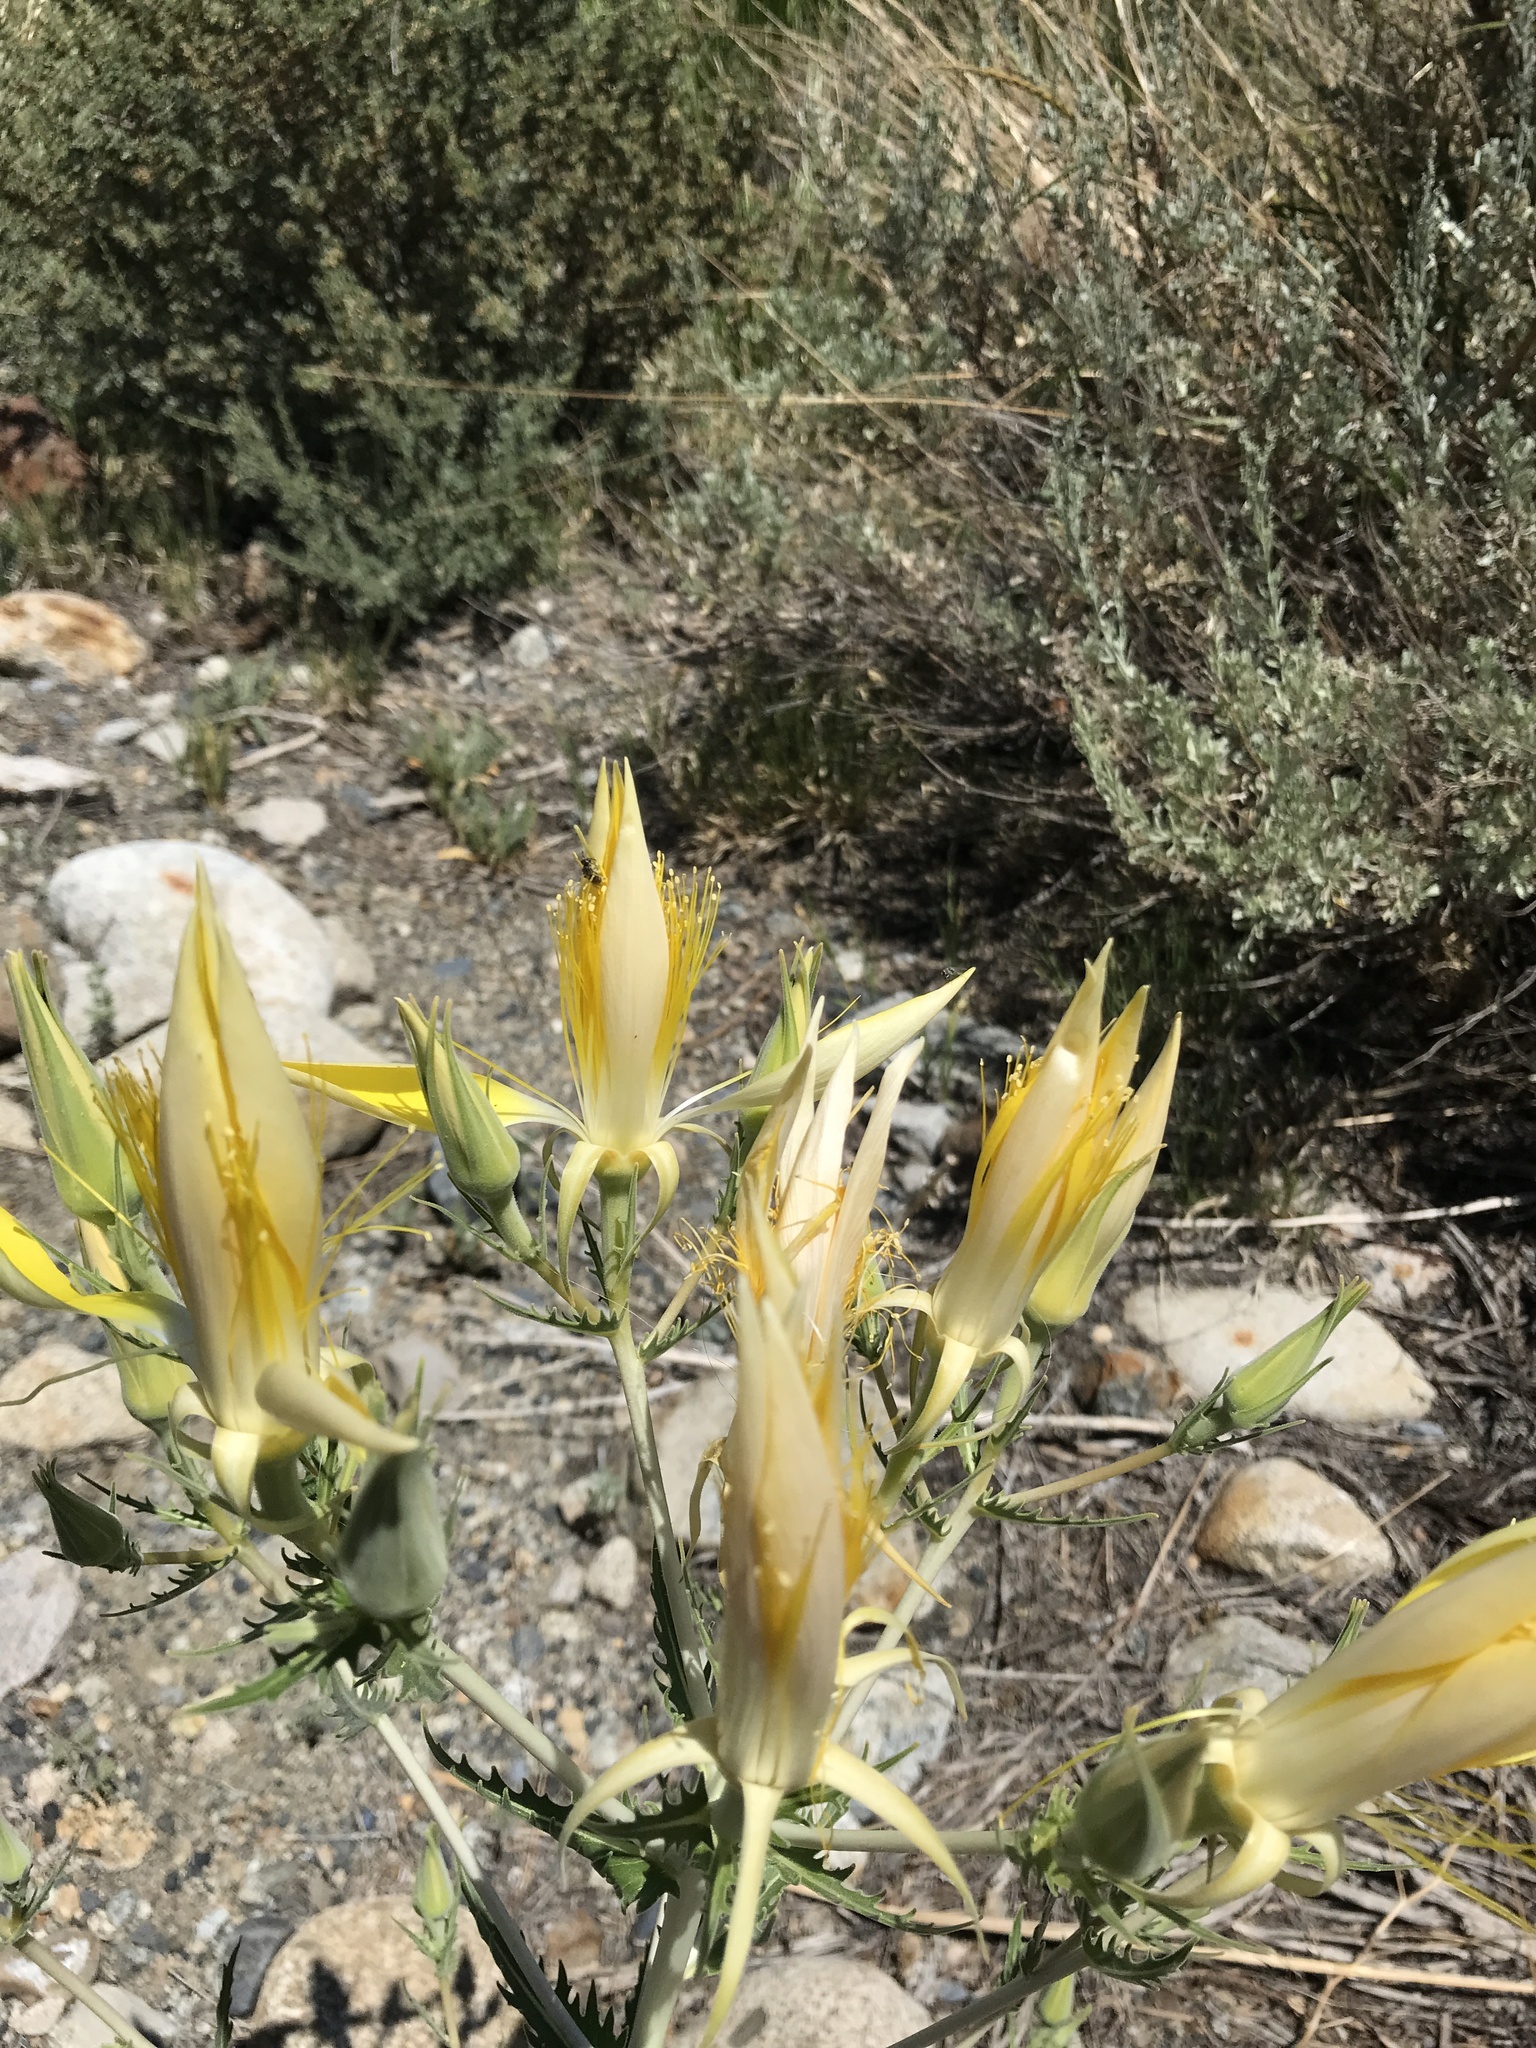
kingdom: Plantae
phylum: Tracheophyta
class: Magnoliopsida
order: Cornales
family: Loasaceae
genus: Mentzelia
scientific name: Mentzelia laevicaulis
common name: Smooth-stem blazingstar
